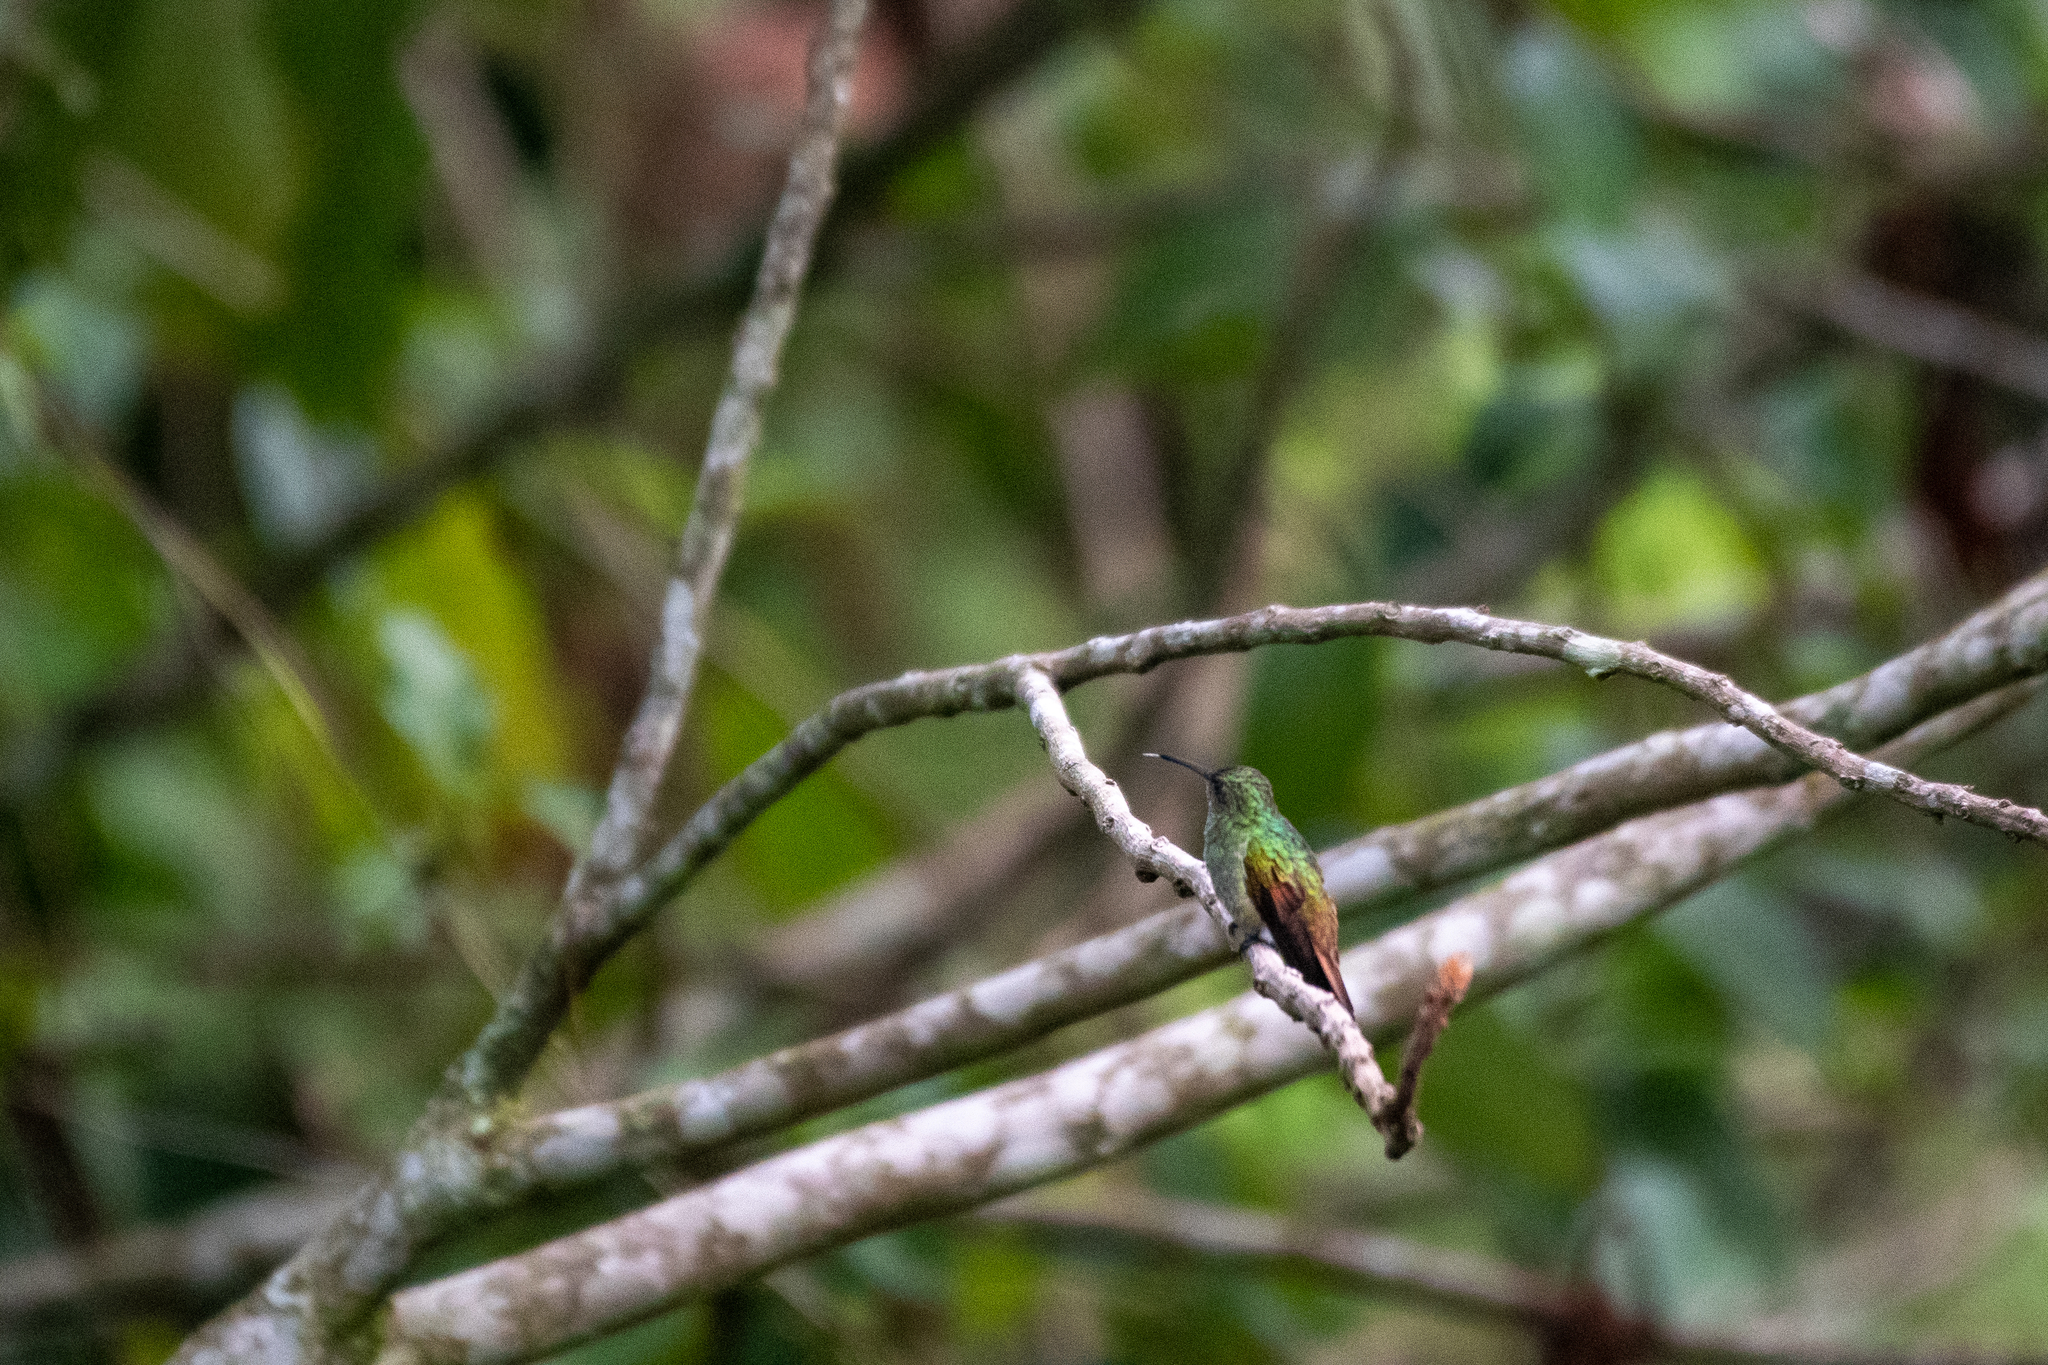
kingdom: Animalia
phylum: Chordata
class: Aves
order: Apodiformes
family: Trochilidae
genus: Amazilia
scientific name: Amazilia tzacatl
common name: Rufous-tailed hummingbird
